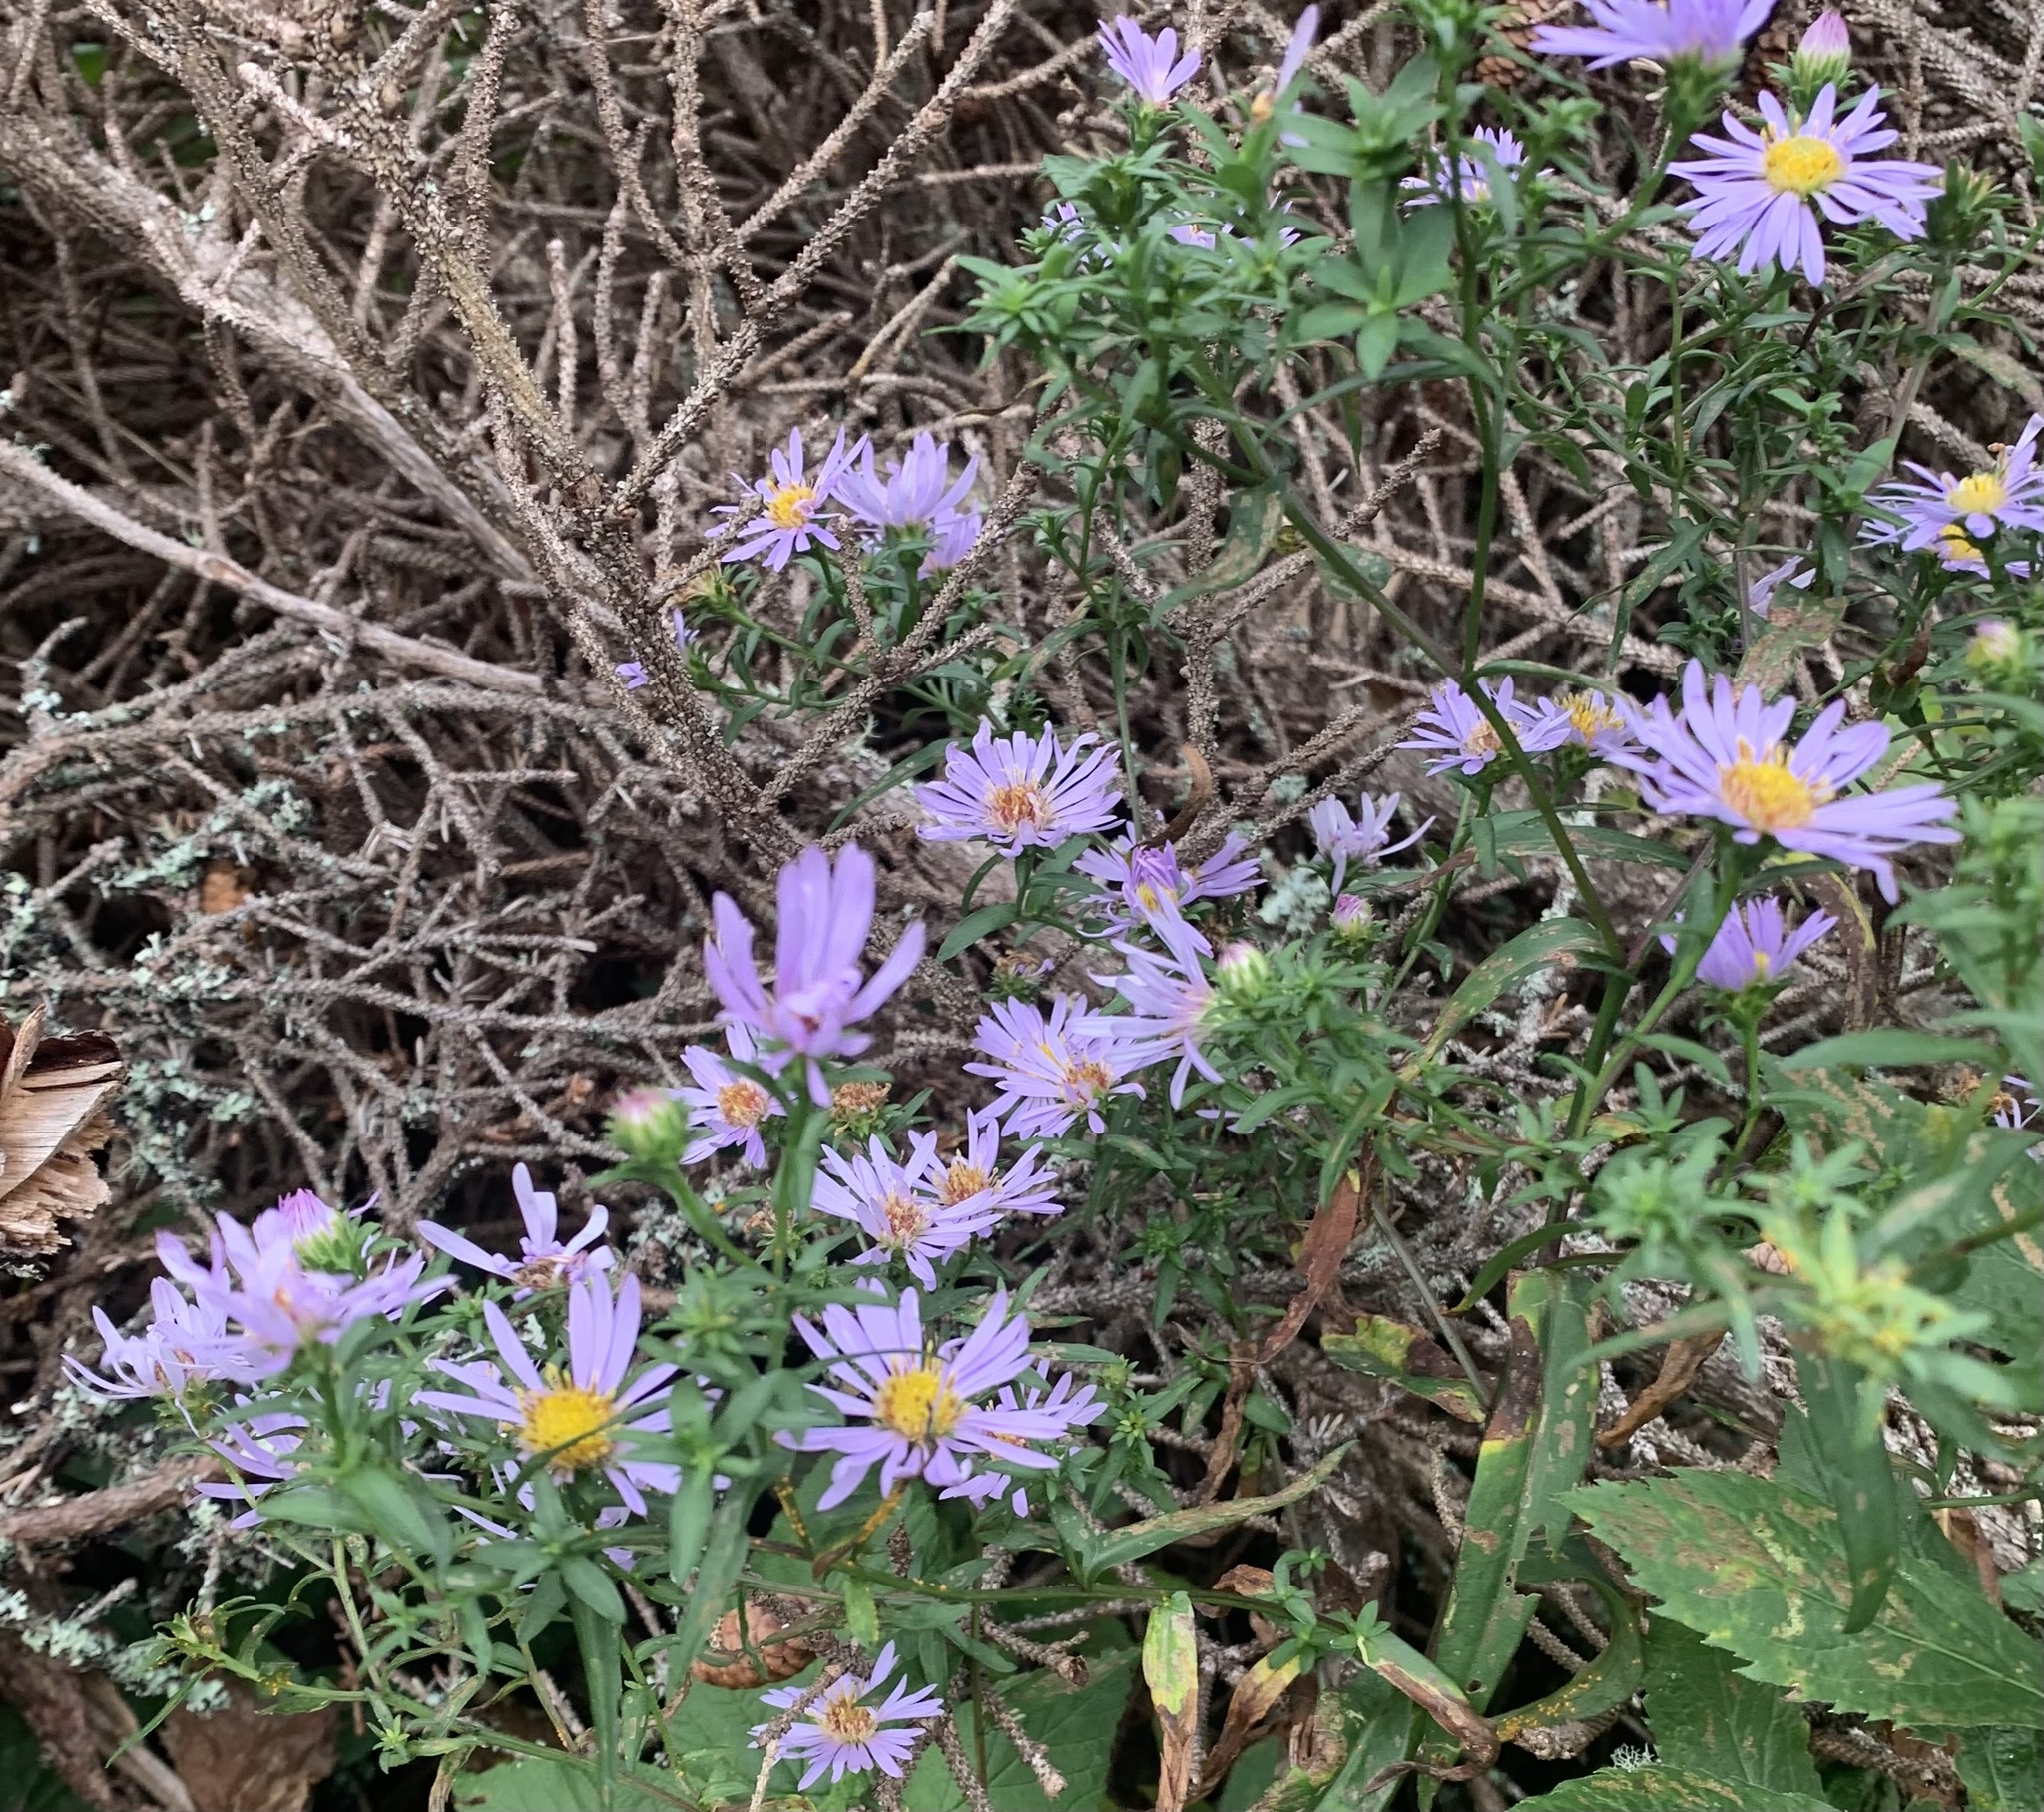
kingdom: Plantae
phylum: Tracheophyta
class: Magnoliopsida
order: Asterales
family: Asteraceae
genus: Symphyotrichum
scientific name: Symphyotrichum novi-belgii
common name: Michaelmas daisy
